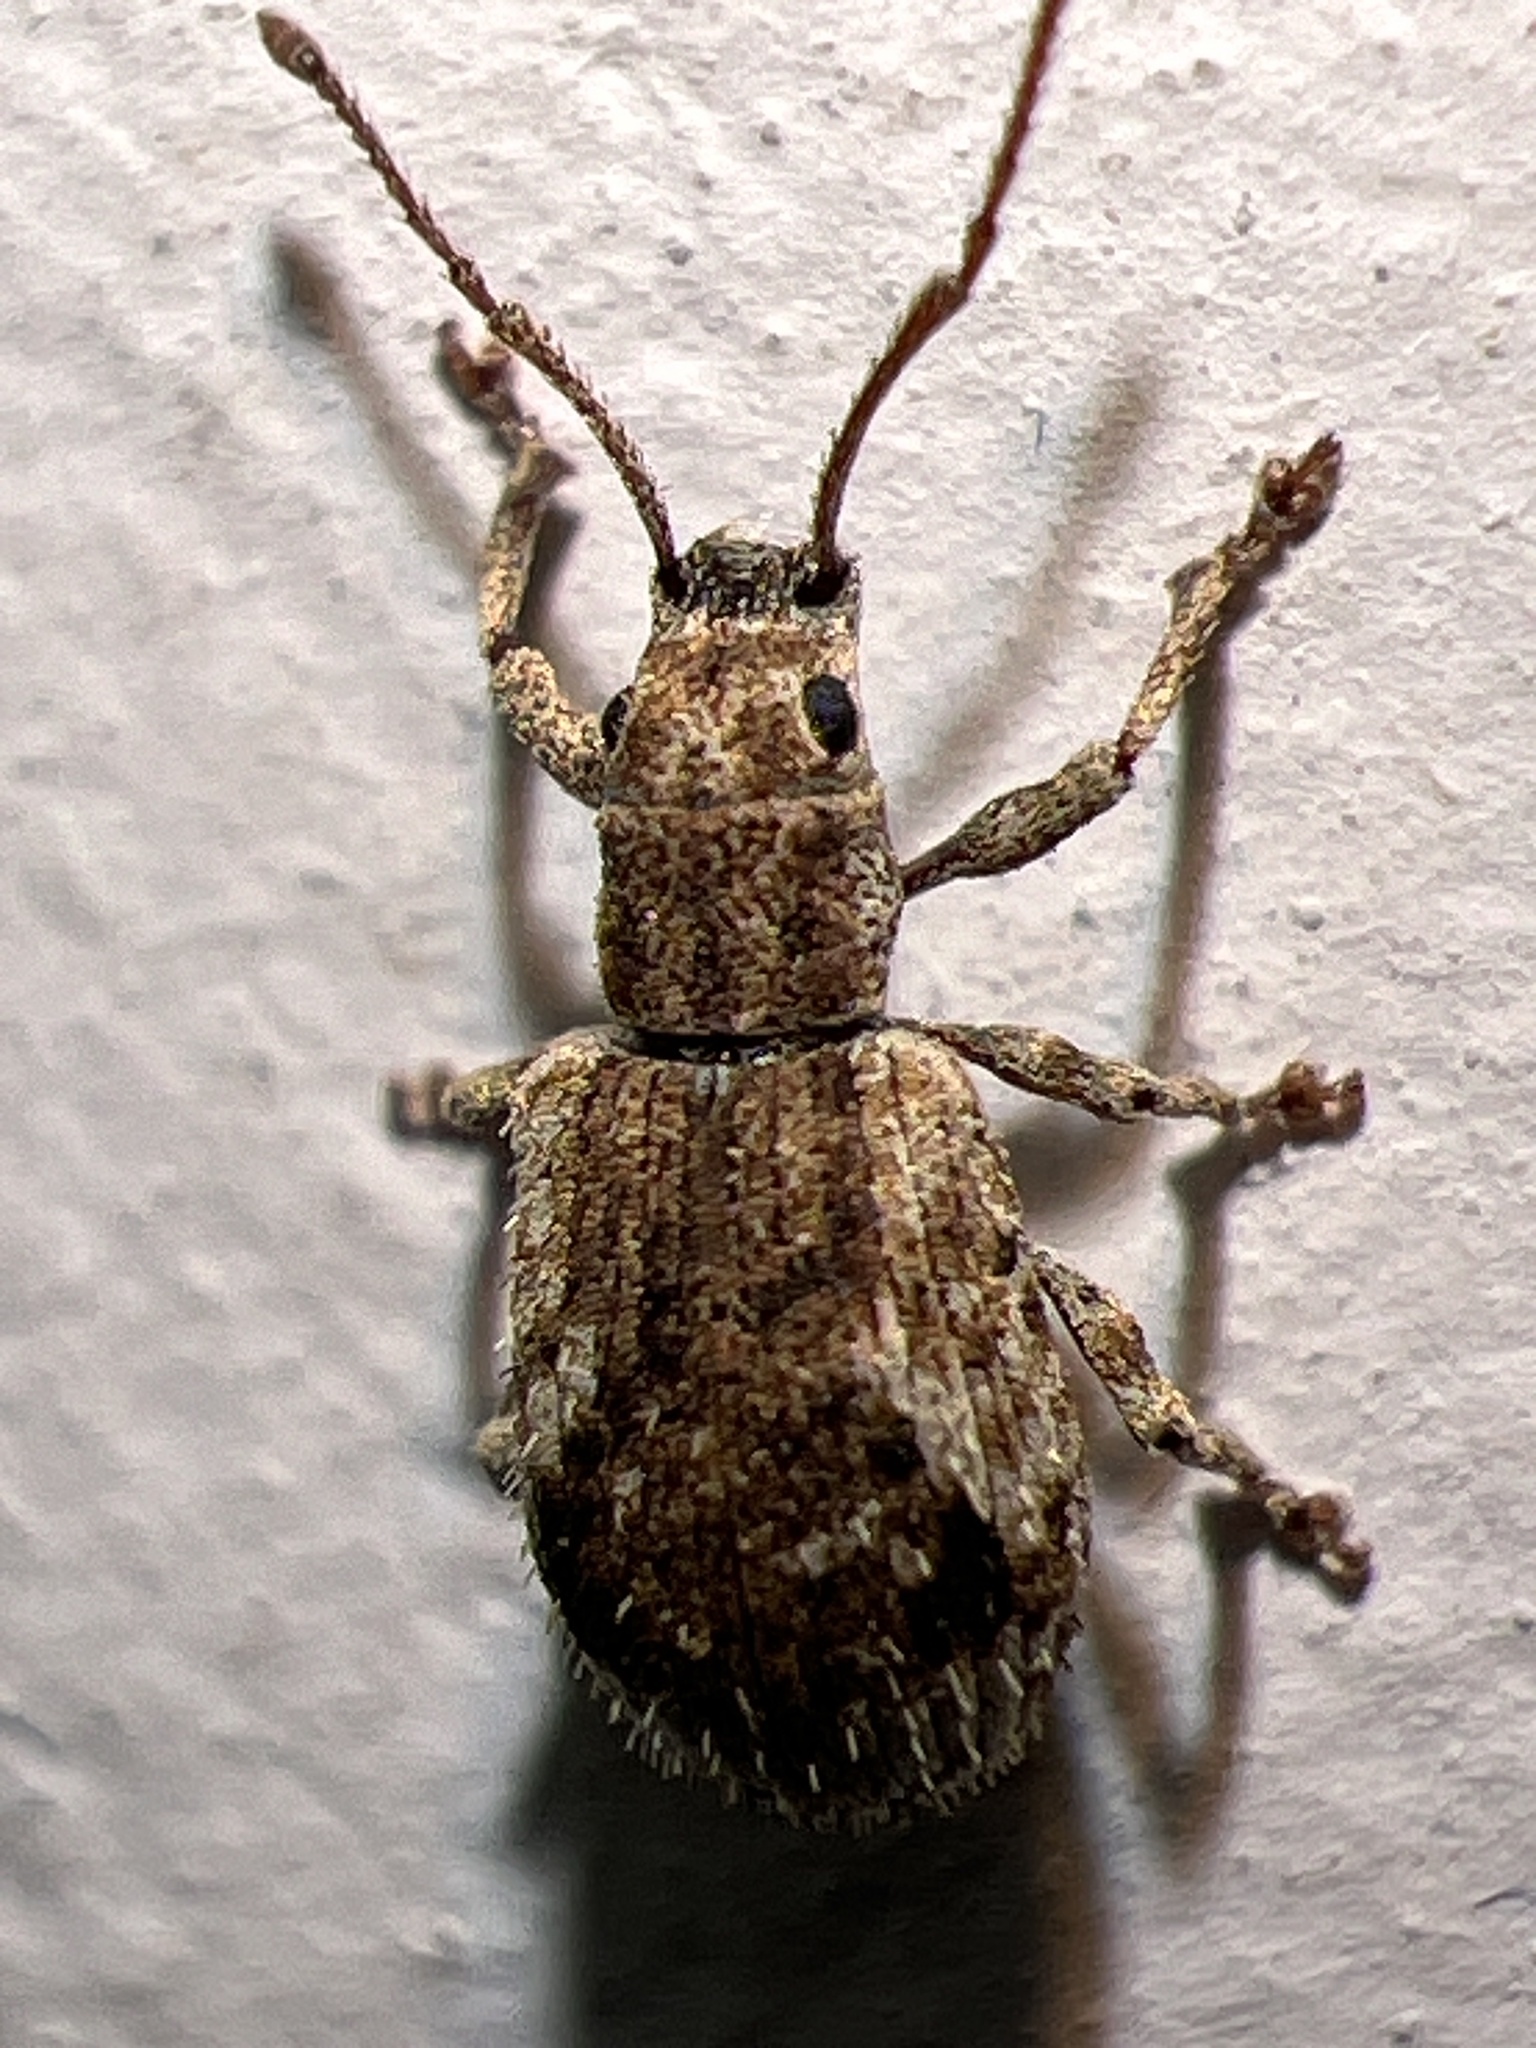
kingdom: Animalia
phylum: Arthropoda
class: Insecta
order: Coleoptera
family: Curculionidae
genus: Pseudoedophrys
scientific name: Pseudoedophrys hilleri
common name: Weevil
